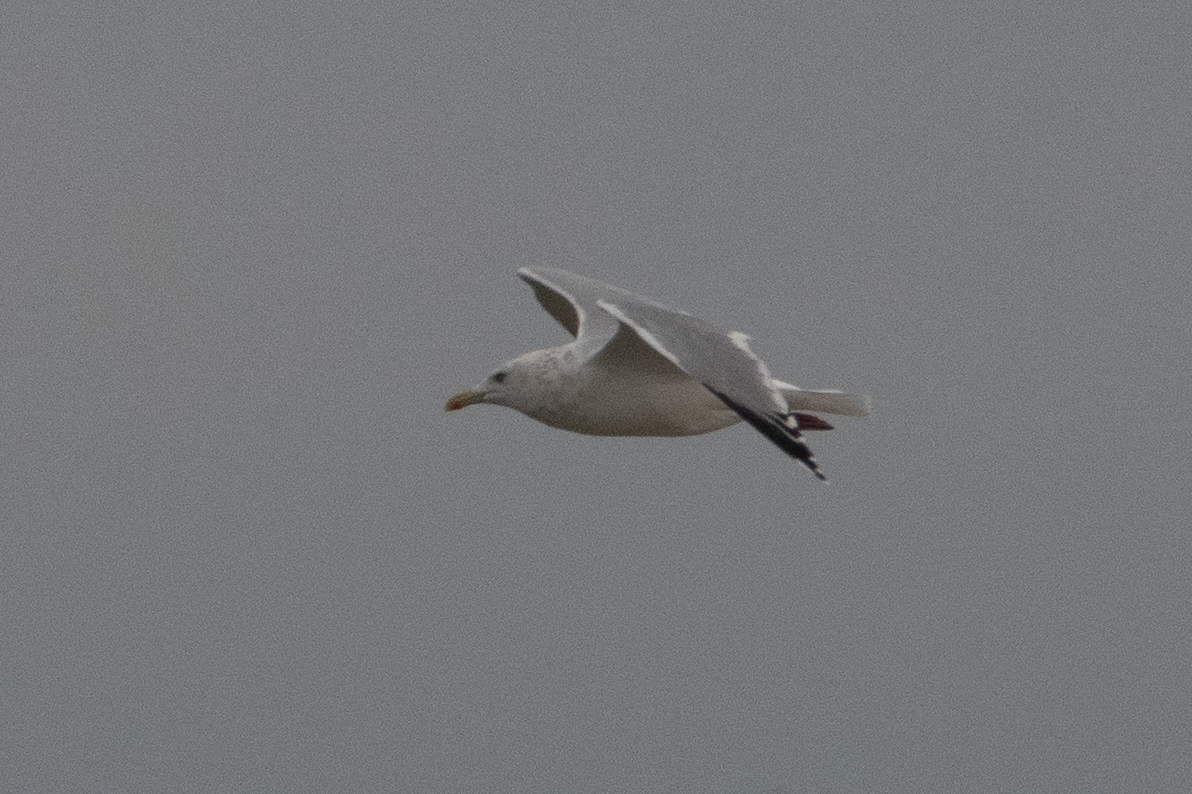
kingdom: Animalia
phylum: Chordata
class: Aves
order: Charadriiformes
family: Laridae
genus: Larus
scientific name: Larus argentatus
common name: Herring gull
